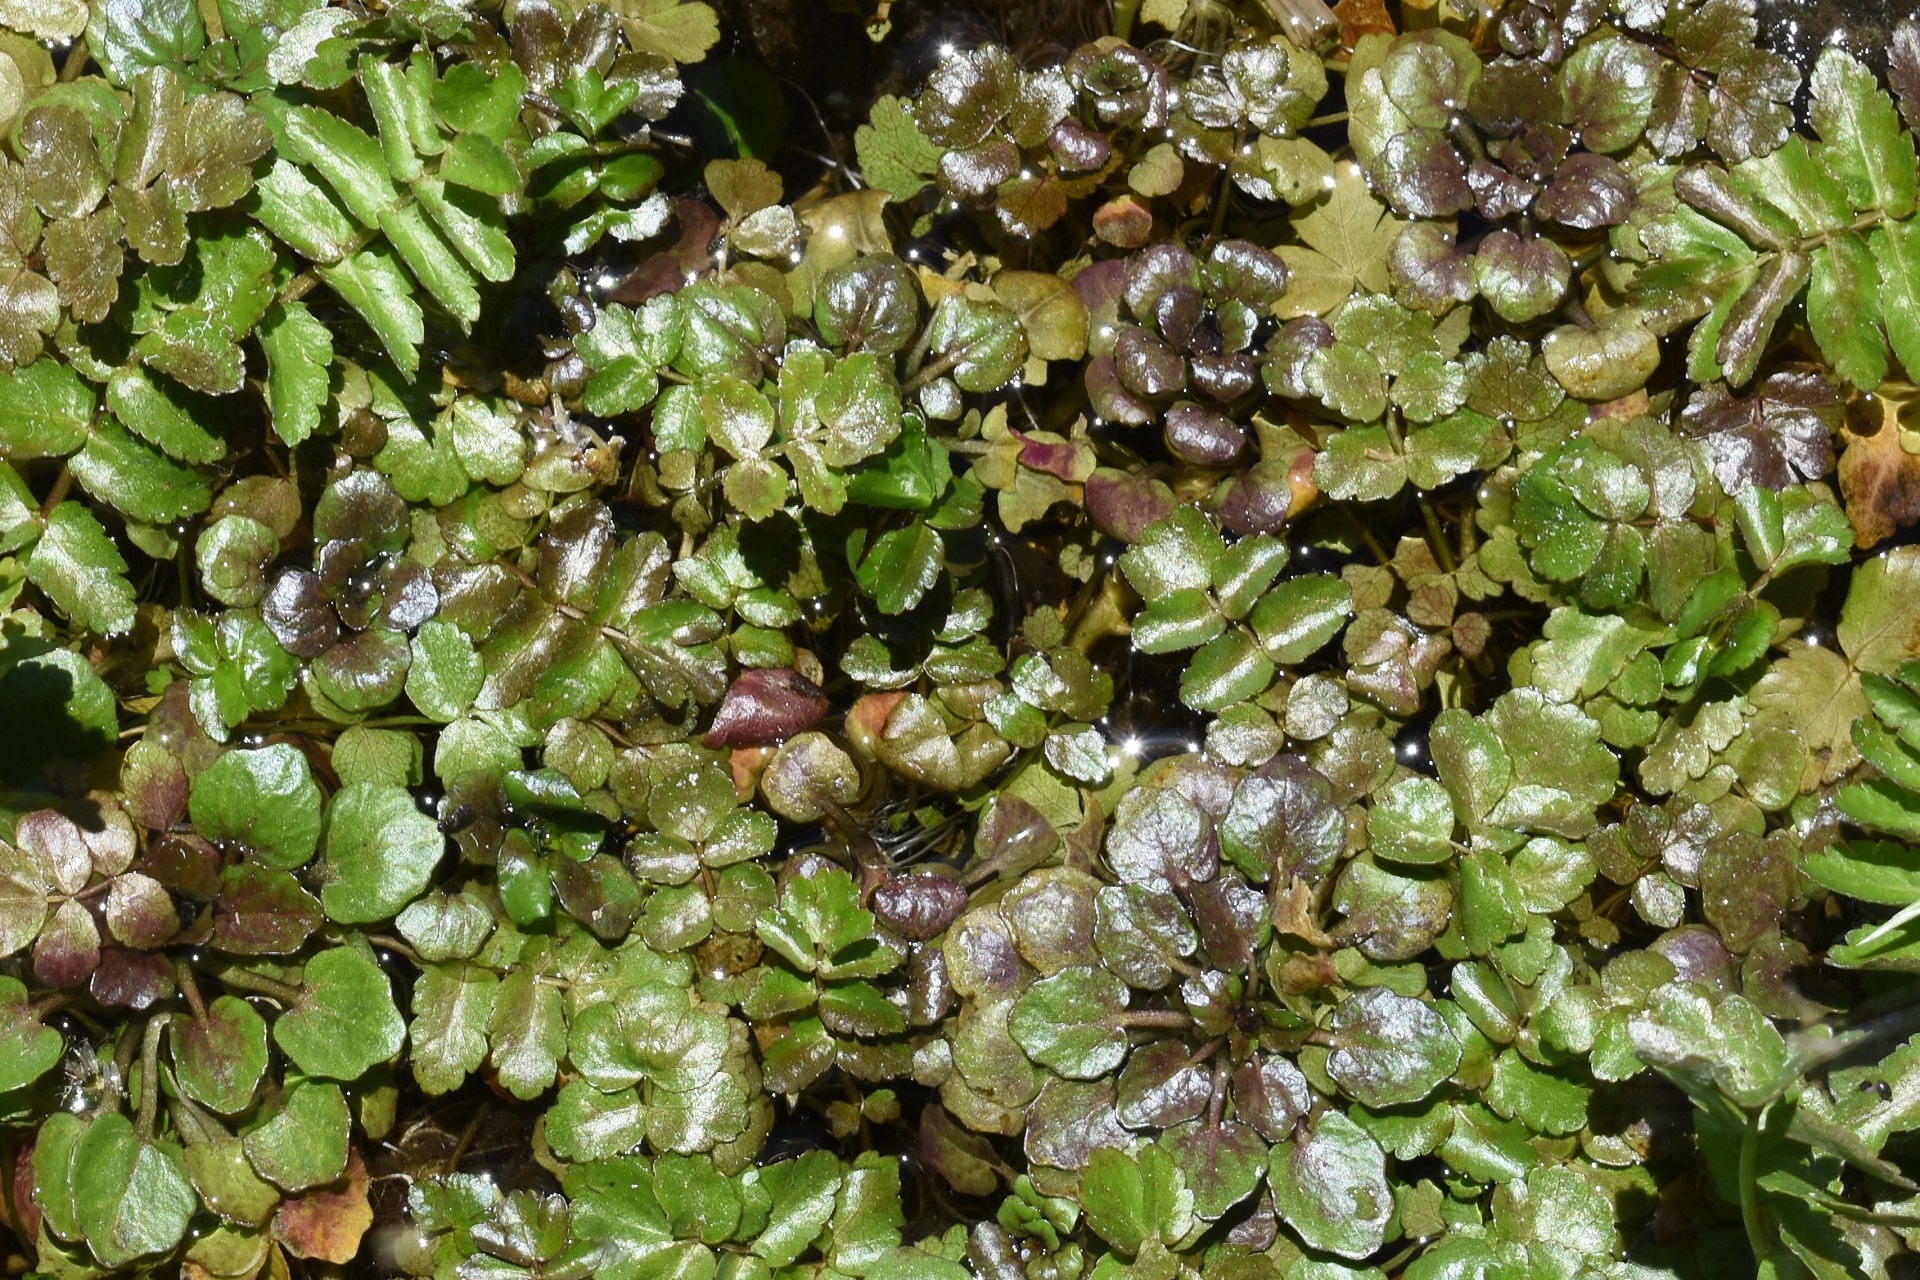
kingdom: Plantae
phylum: Tracheophyta
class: Magnoliopsida
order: Brassicales
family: Brassicaceae
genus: Nasturtium
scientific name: Nasturtium officinale
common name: Watercress
